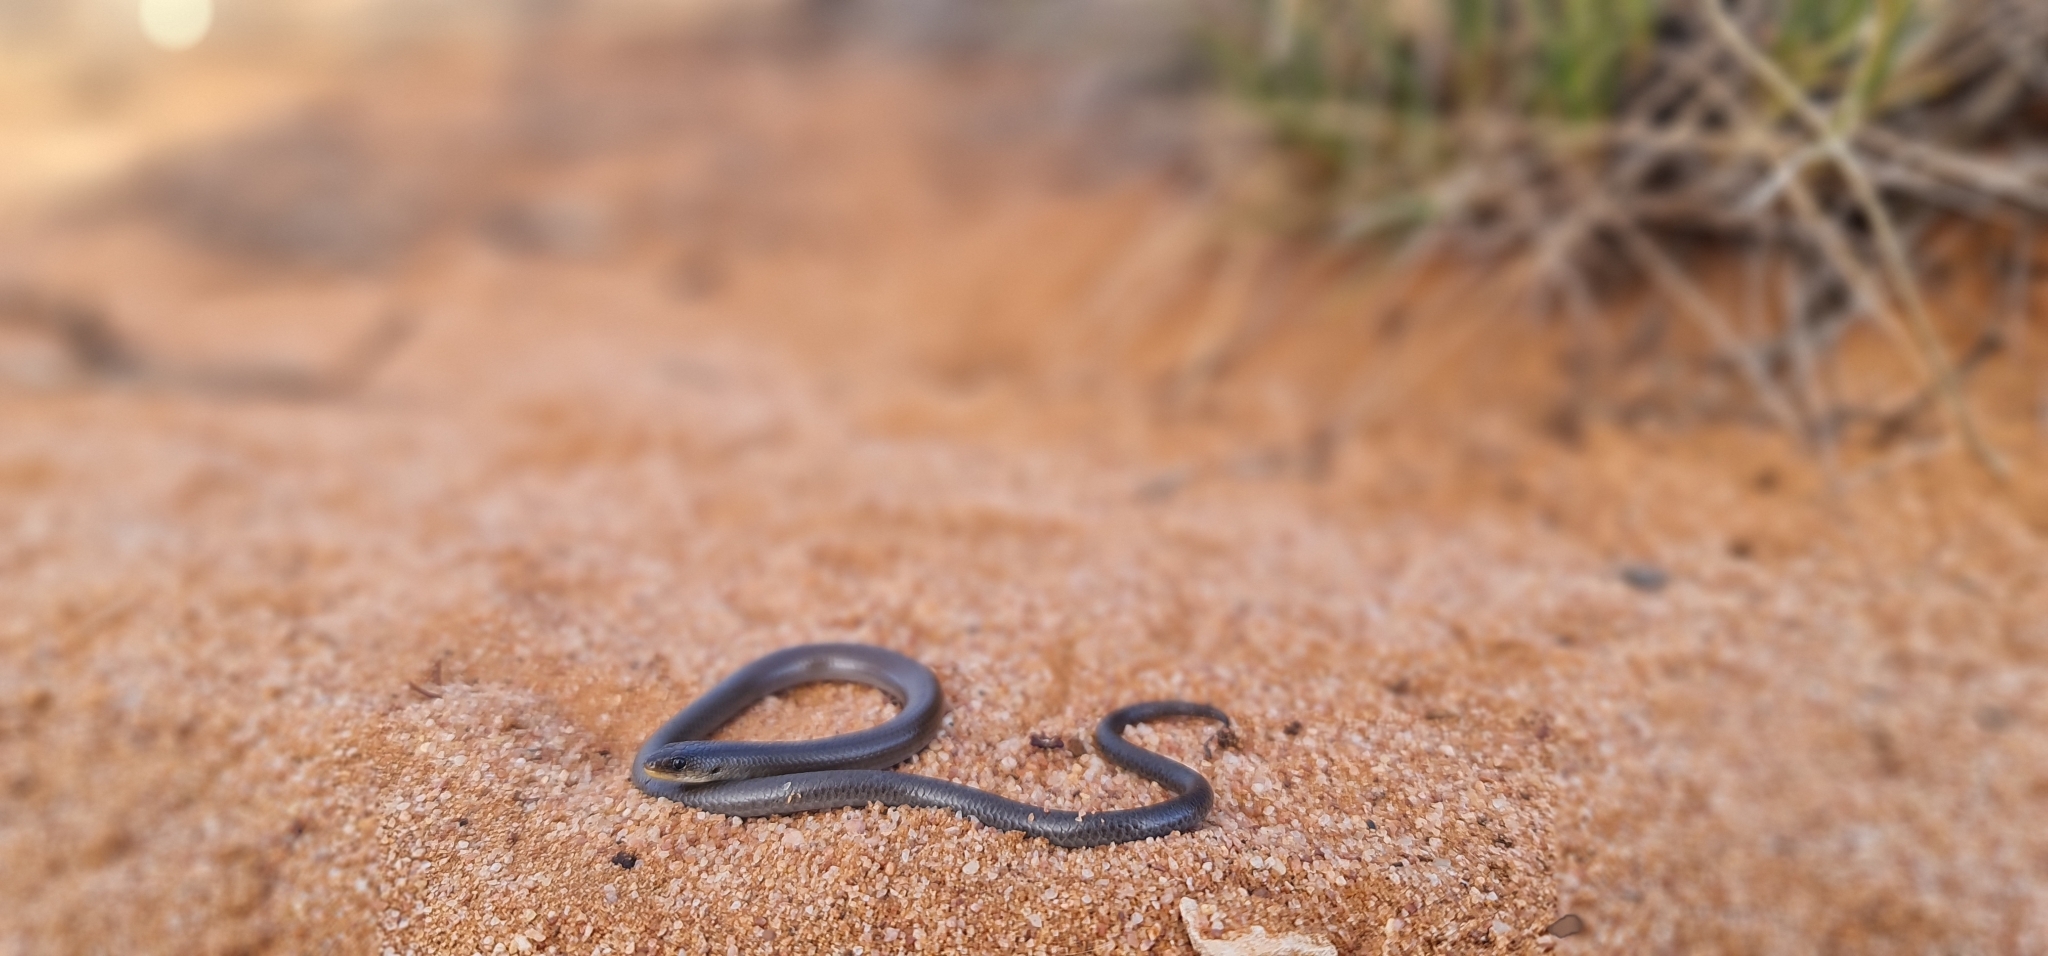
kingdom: Animalia
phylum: Chordata
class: Squamata
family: Pygopodidae
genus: Delma
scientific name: Delma butleri
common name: Butler's legless lizard
